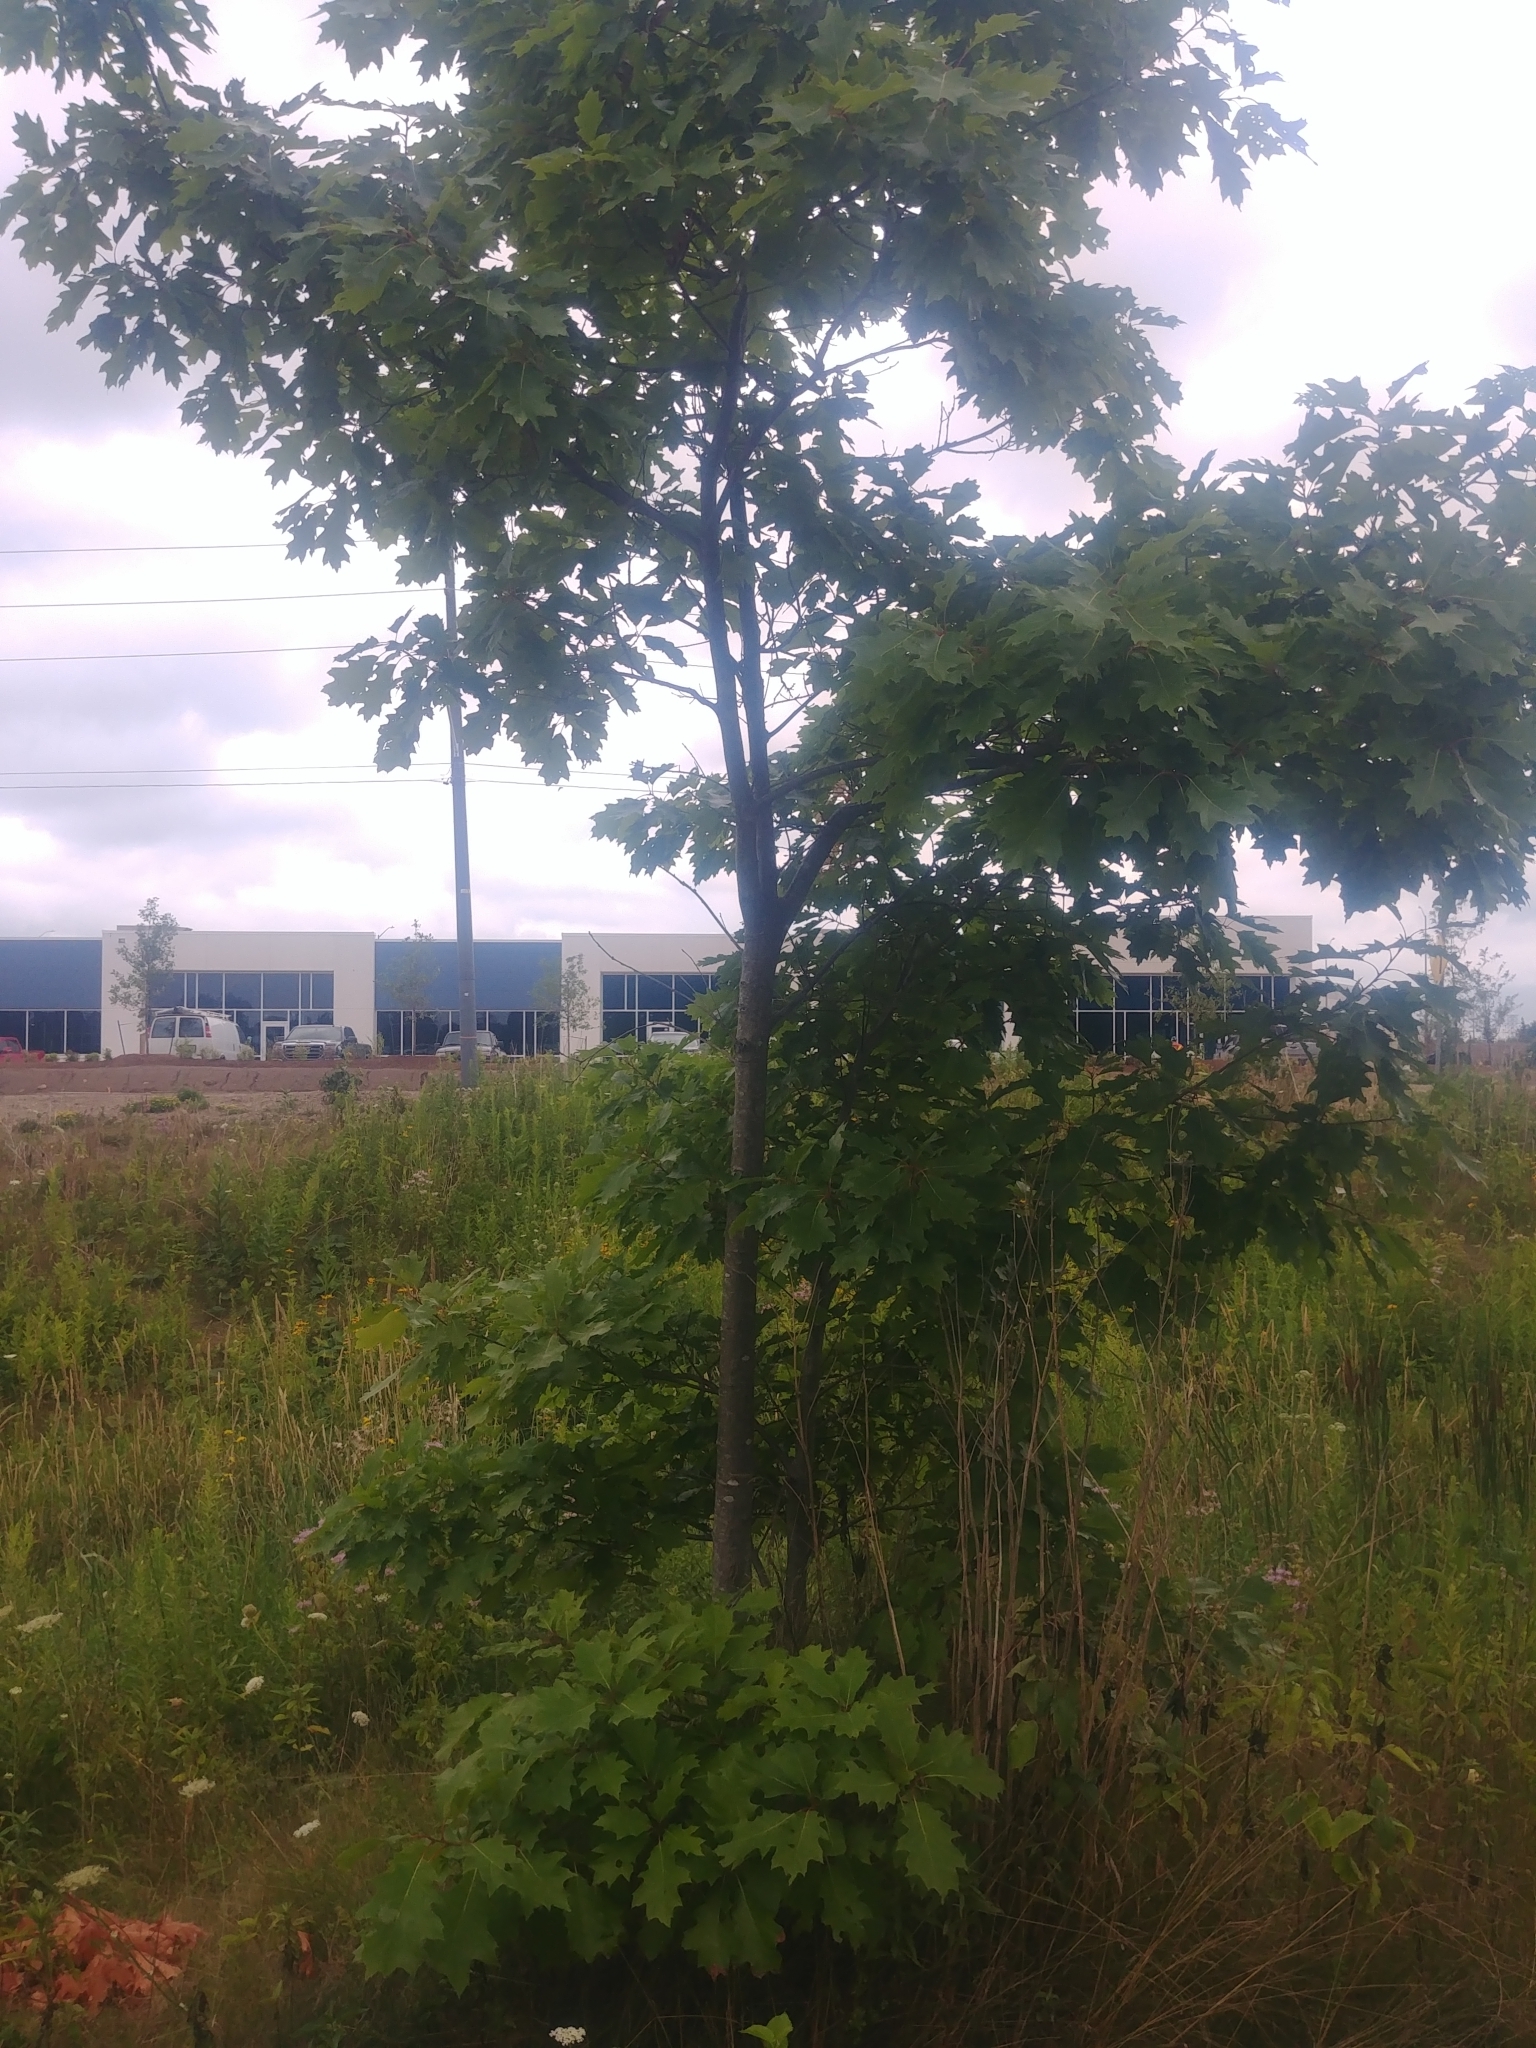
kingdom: Plantae
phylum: Tracheophyta
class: Magnoliopsida
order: Fagales
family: Fagaceae
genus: Quercus
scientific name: Quercus rubra
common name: Red oak
